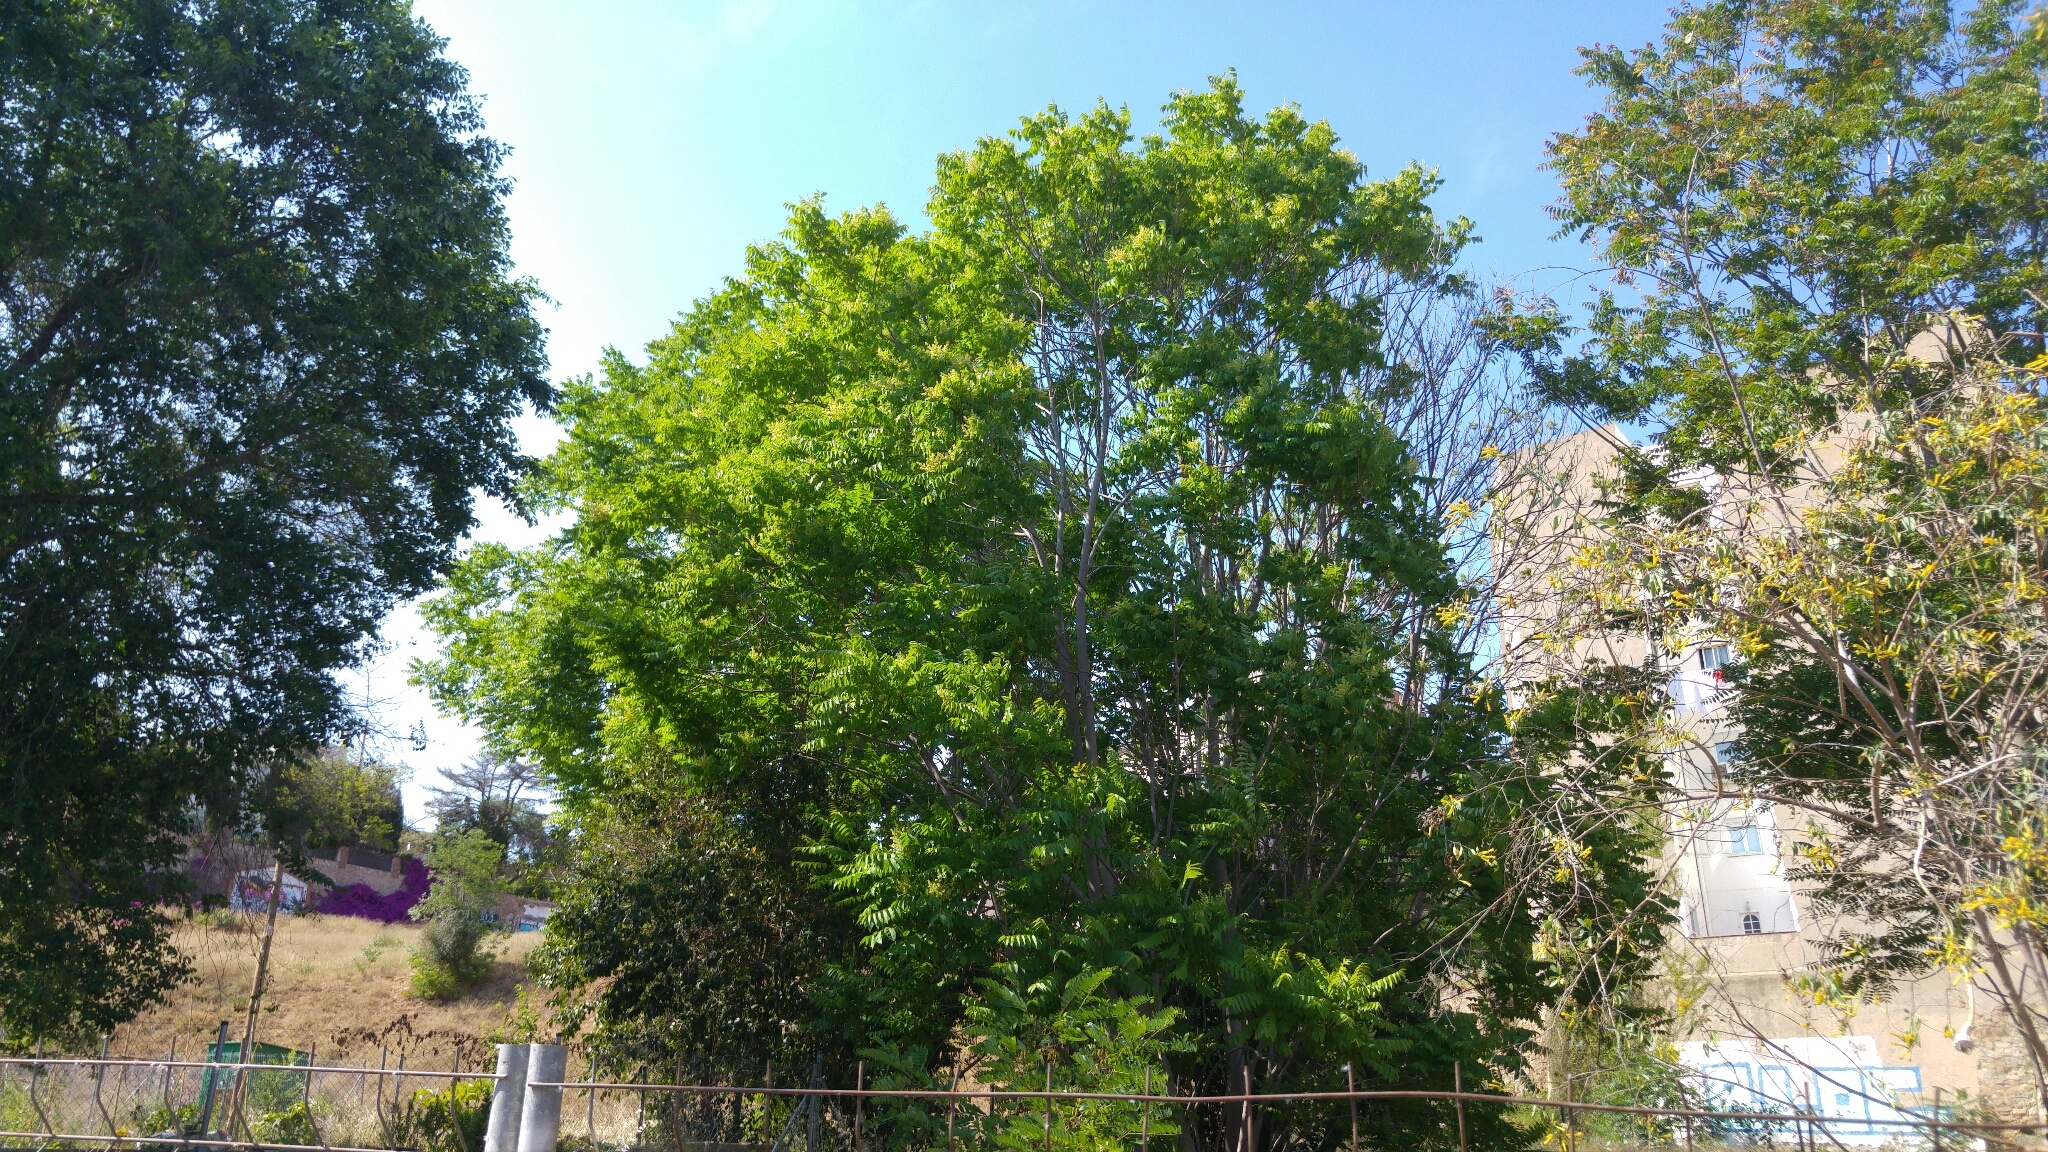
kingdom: Plantae
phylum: Tracheophyta
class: Magnoliopsida
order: Sapindales
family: Simaroubaceae
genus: Ailanthus
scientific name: Ailanthus altissima
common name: Tree-of-heaven
